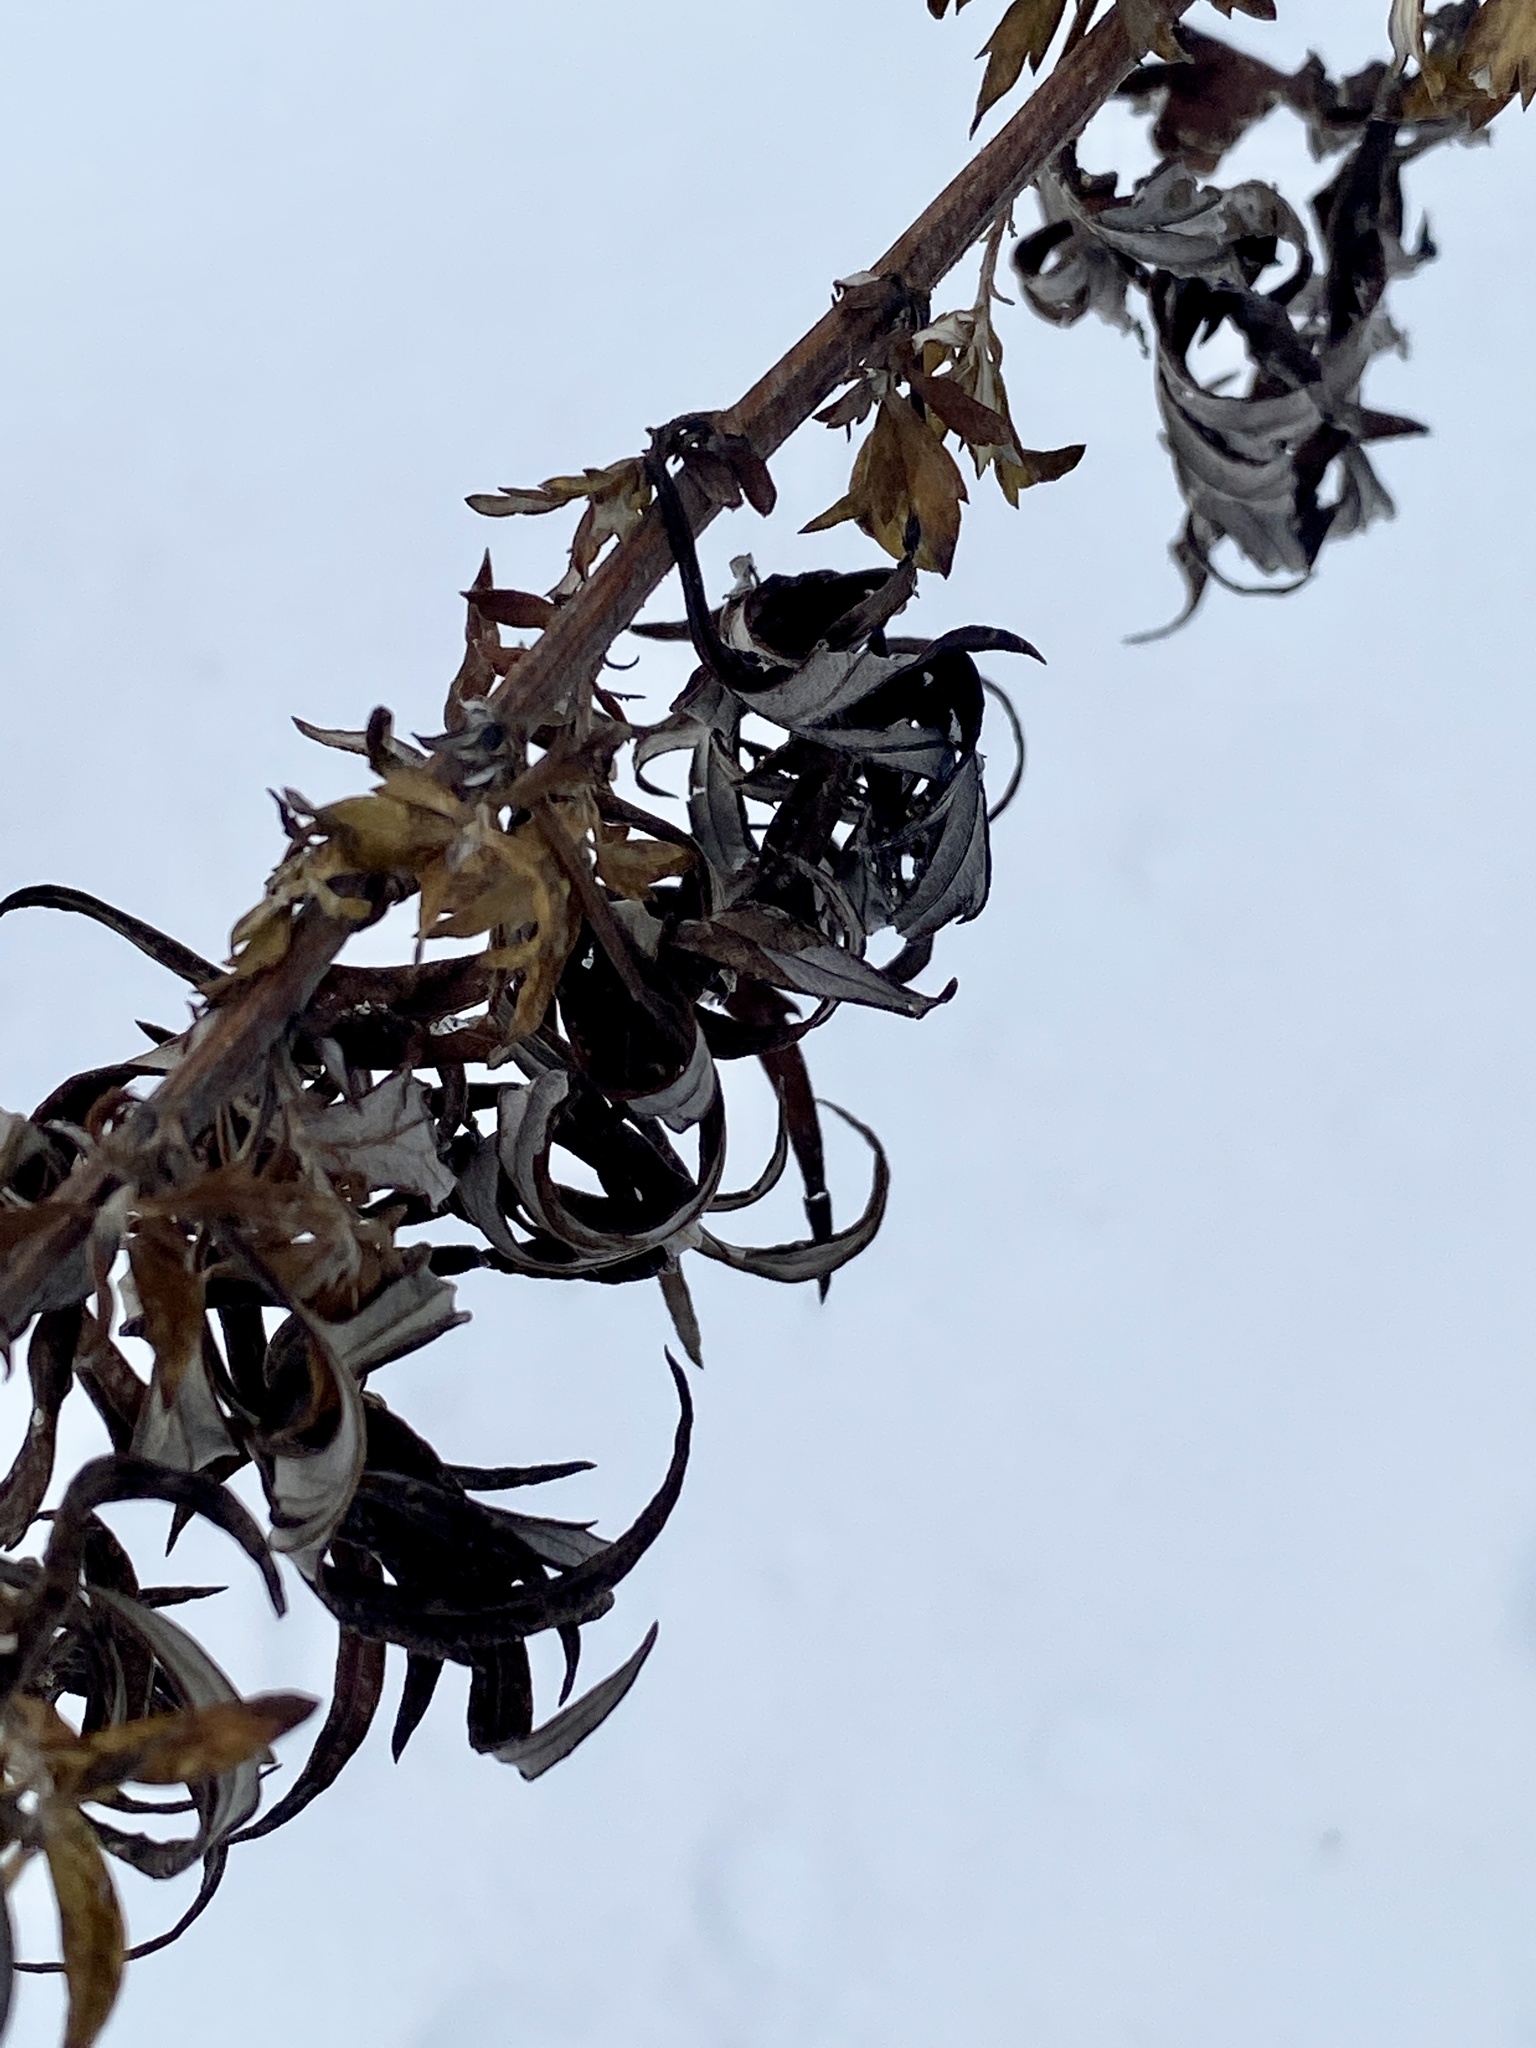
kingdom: Plantae
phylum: Tracheophyta
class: Magnoliopsida
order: Asterales
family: Asteraceae
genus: Artemisia
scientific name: Artemisia vulgaris
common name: Mugwort
